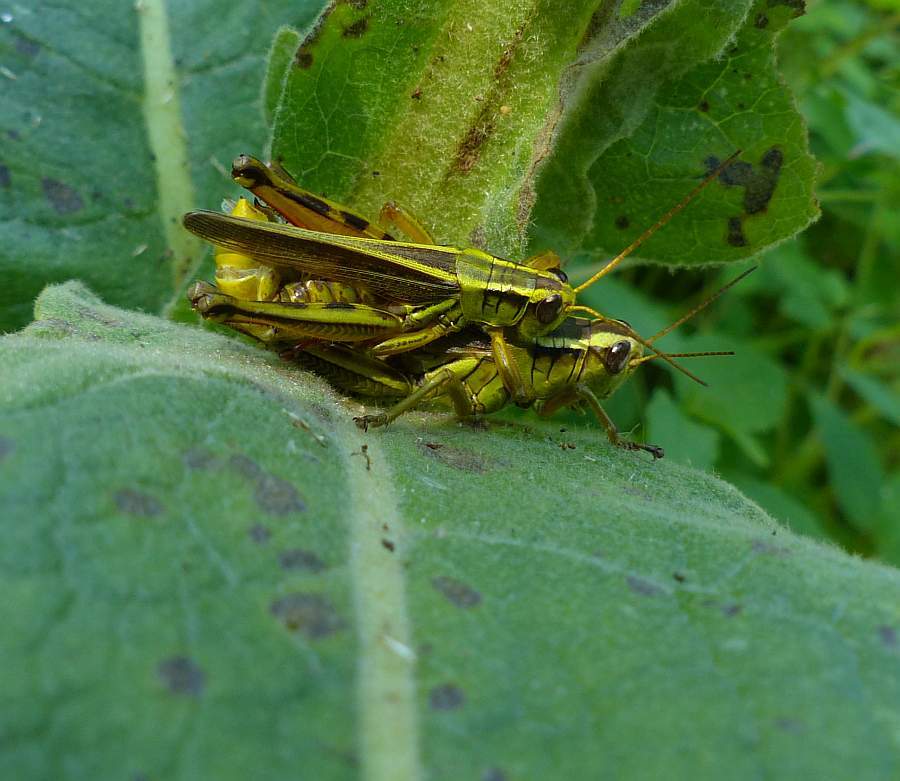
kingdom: Animalia
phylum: Arthropoda
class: Insecta
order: Orthoptera
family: Acrididae
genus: Melanoplus
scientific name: Melanoplus bivittatus
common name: Two-striped grasshopper
